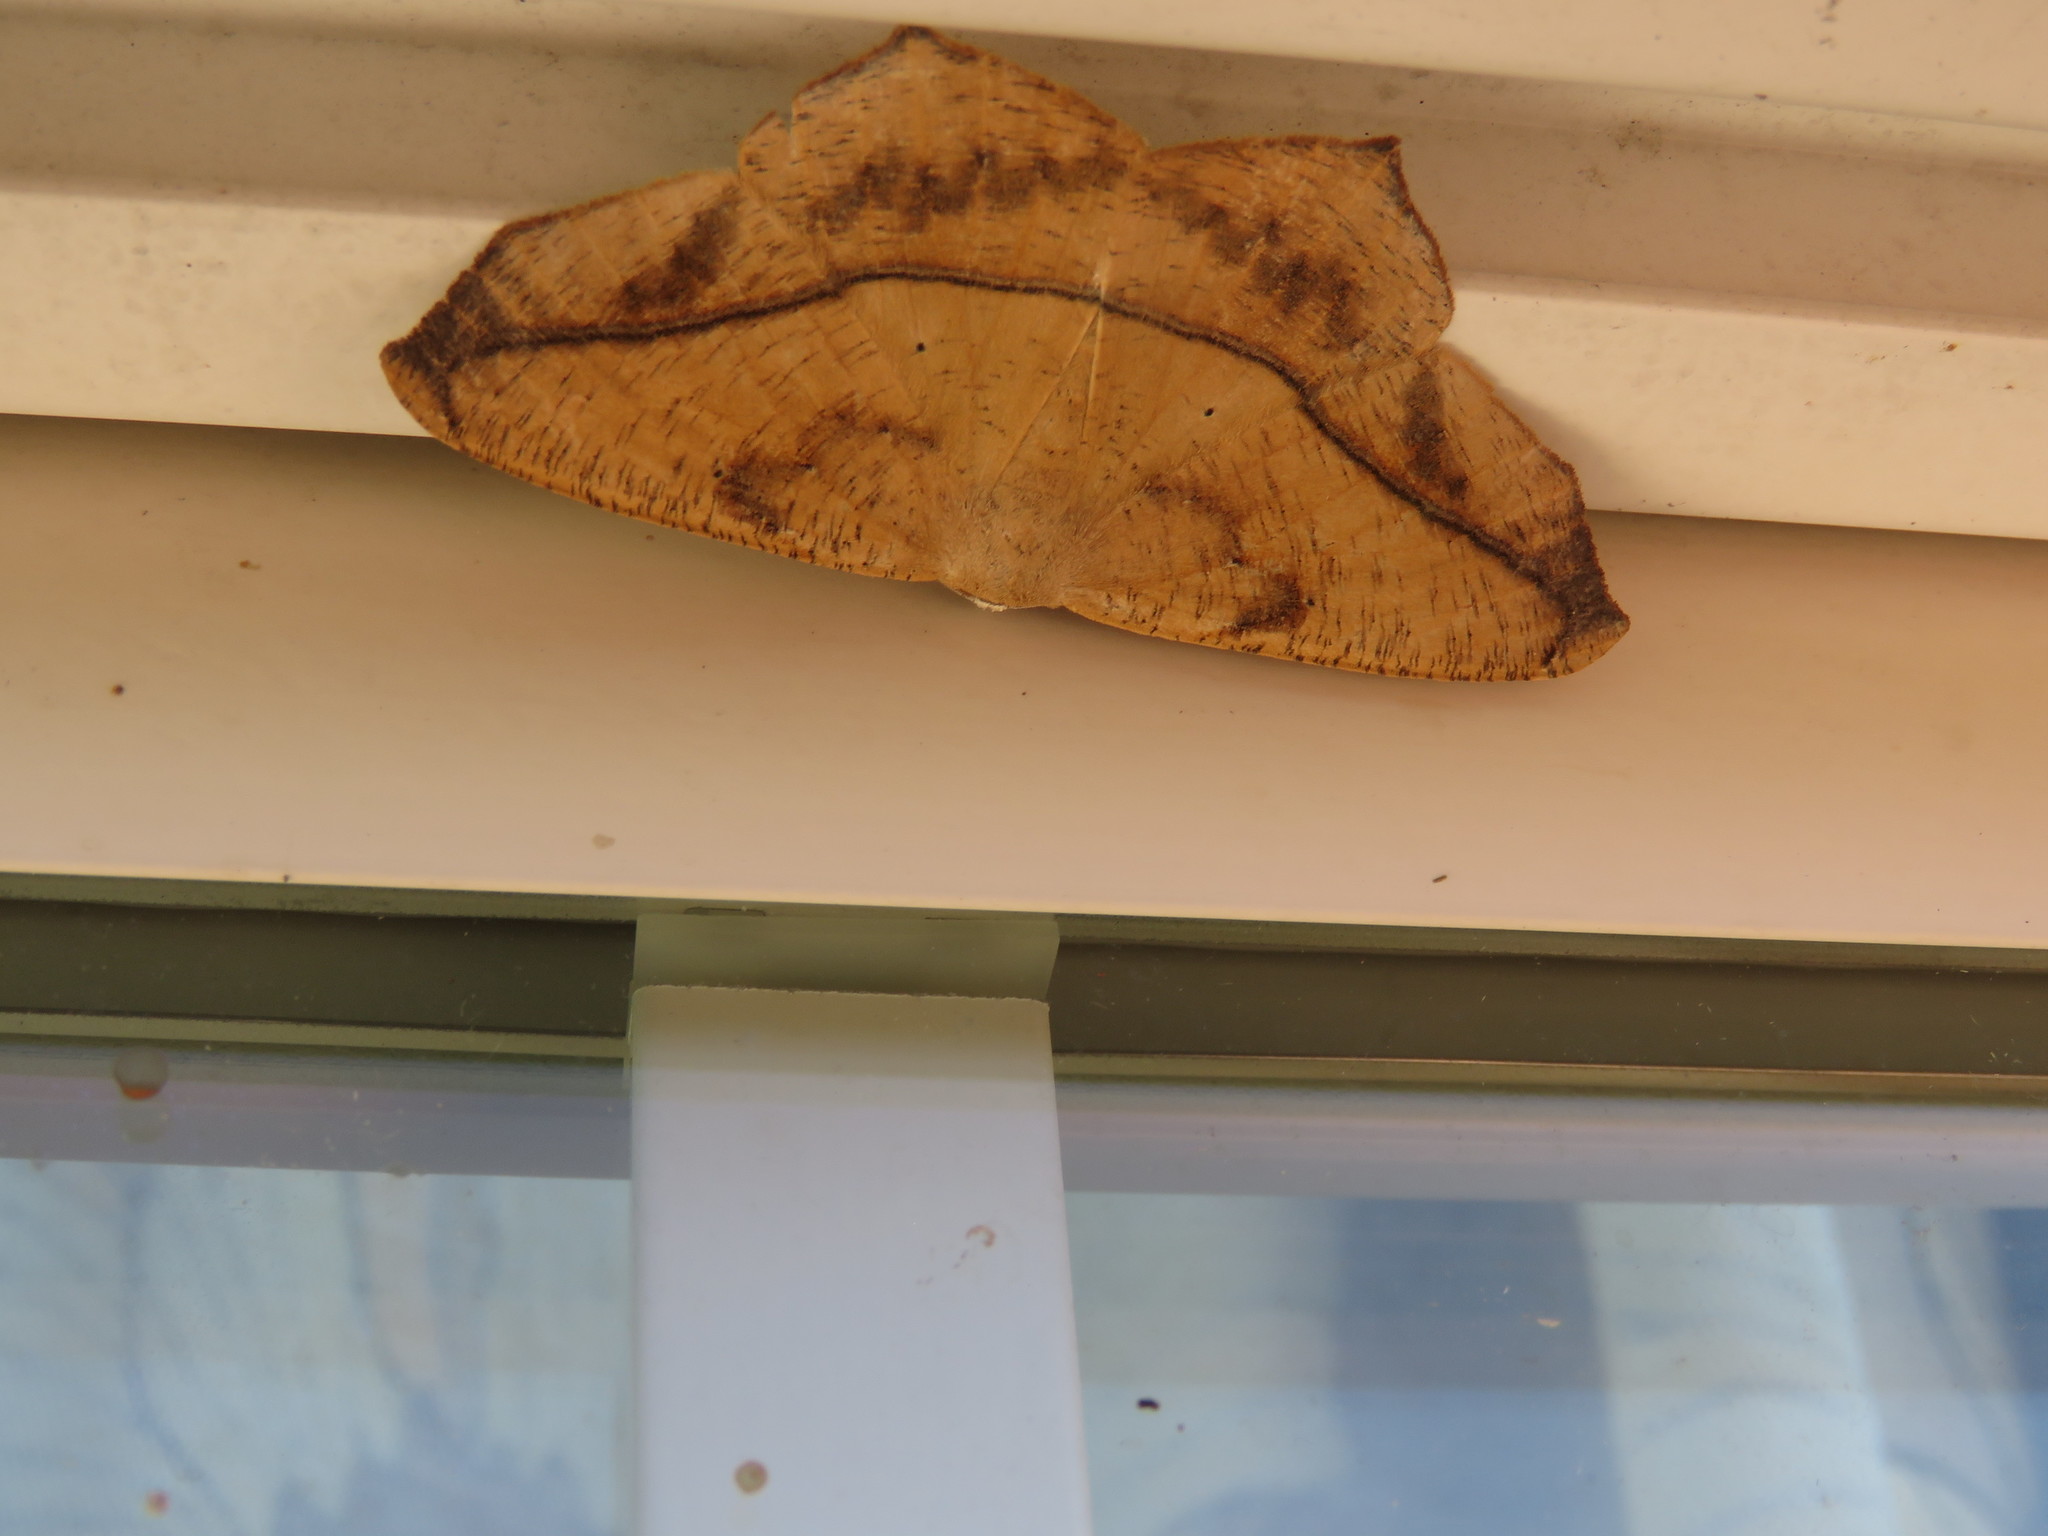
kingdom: Animalia
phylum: Arthropoda
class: Insecta
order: Lepidoptera
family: Geometridae
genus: Prochoerodes
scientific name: Prochoerodes lineola
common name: Large maple spanworm
